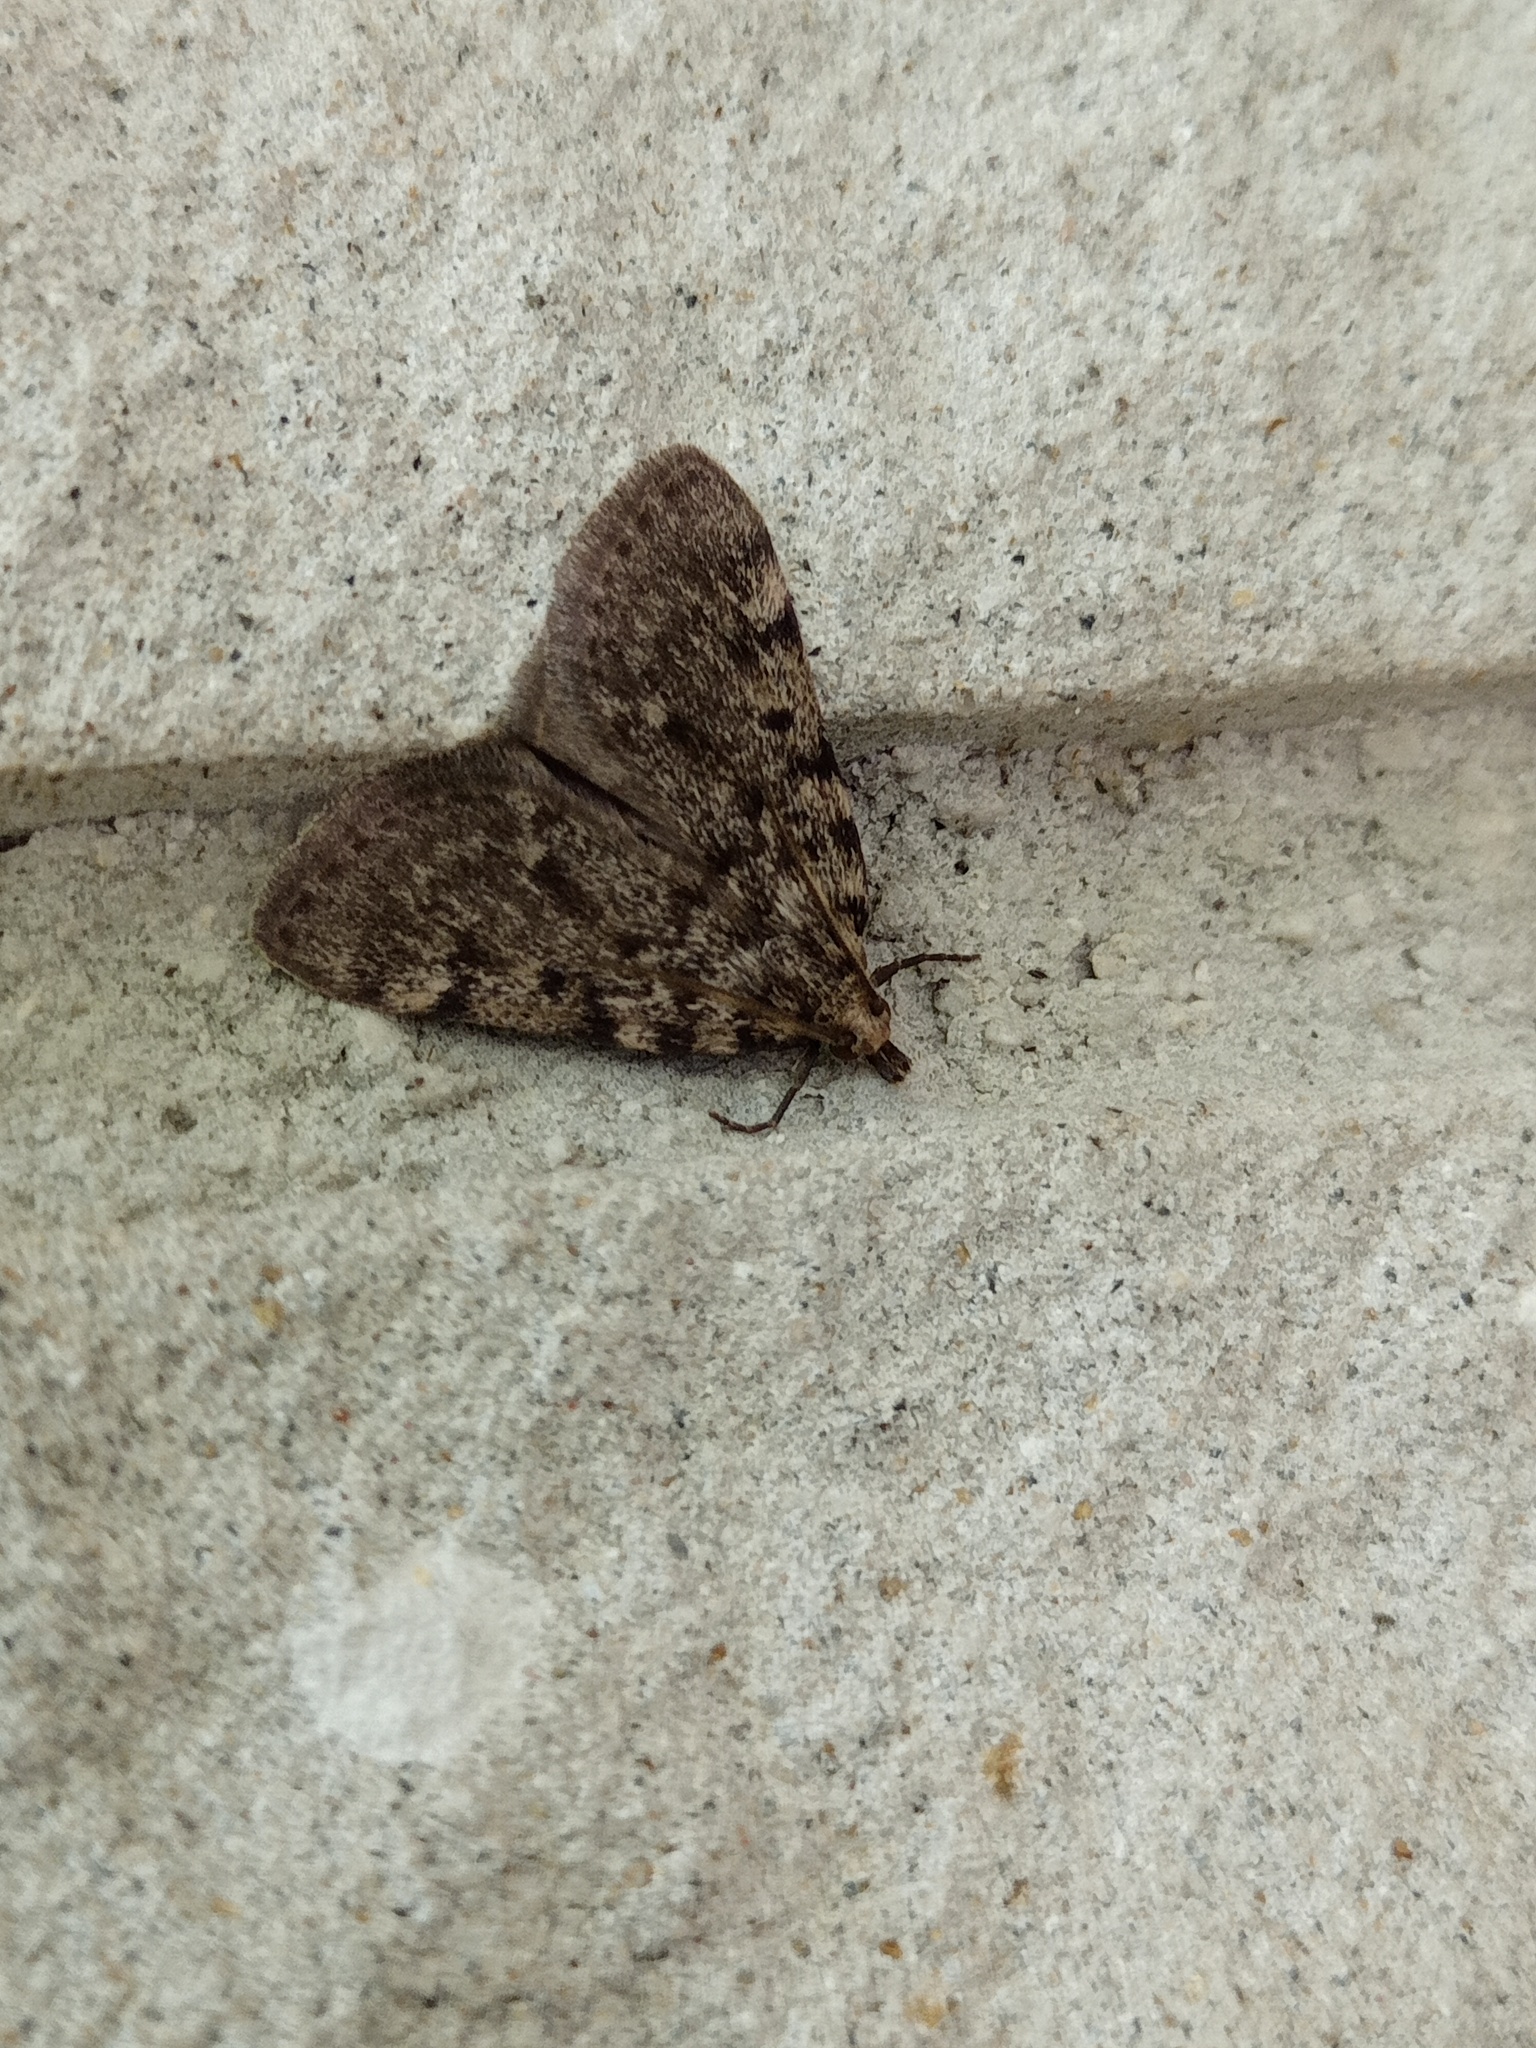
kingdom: Animalia
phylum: Arthropoda
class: Insecta
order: Lepidoptera
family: Pyralidae
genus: Aglossa
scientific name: Aglossa pinguinalis
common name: Large tabby
